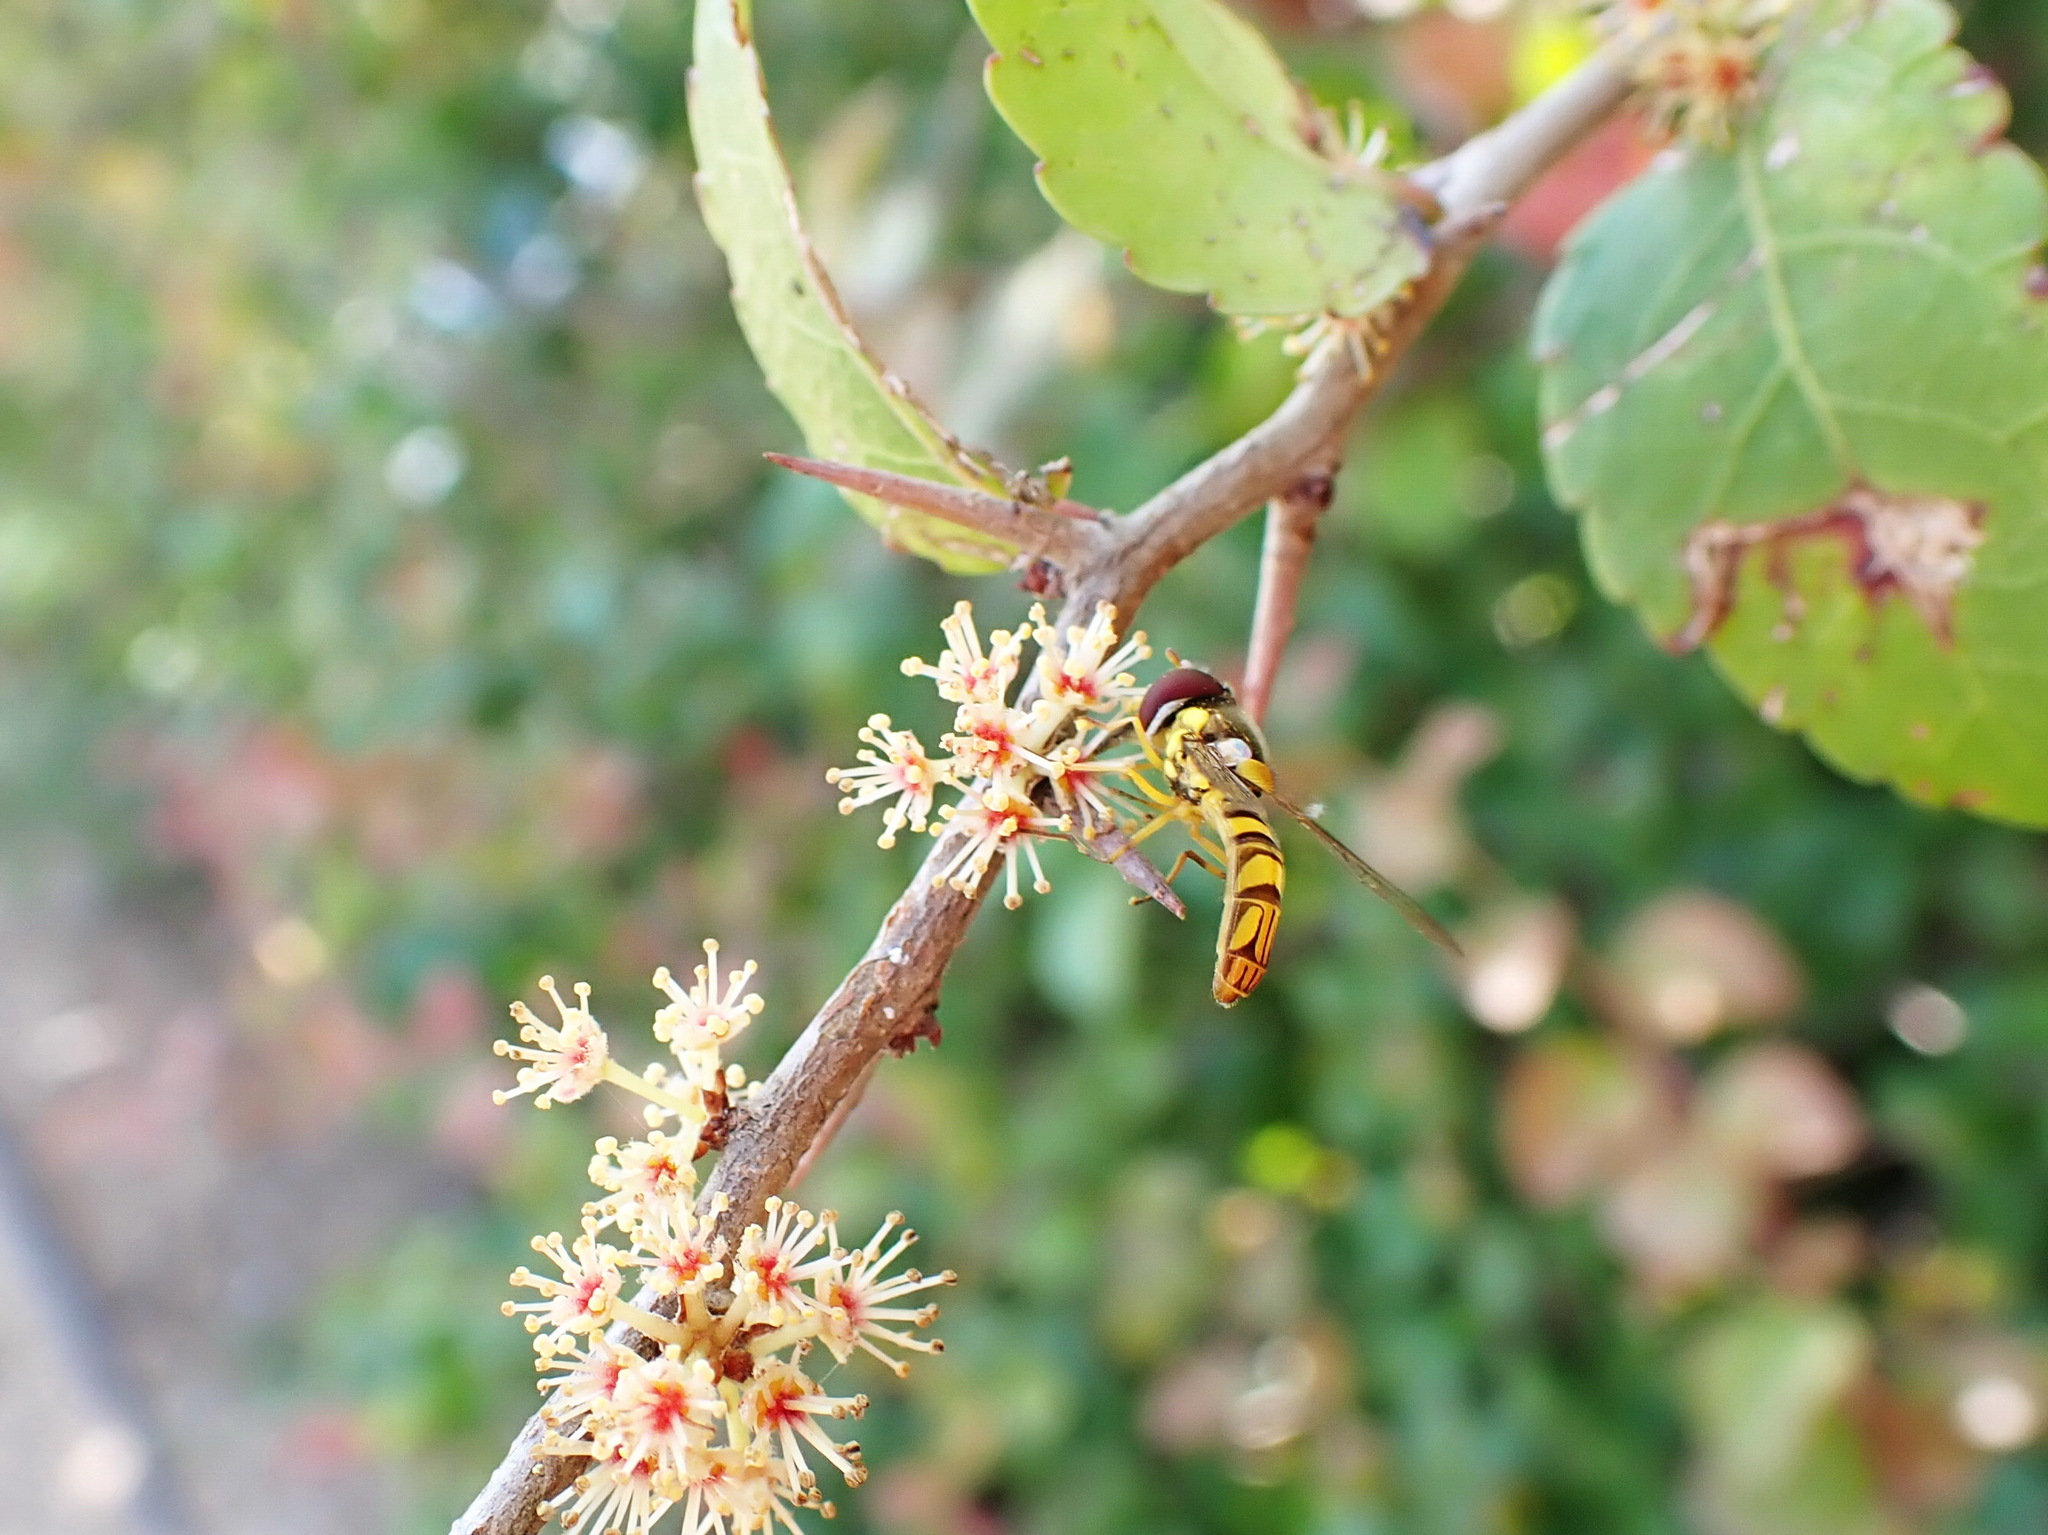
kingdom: Animalia
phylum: Arthropoda
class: Insecta
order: Diptera
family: Syrphidae
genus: Allograpta
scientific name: Allograpta obliqua
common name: Common oblique syrphid
